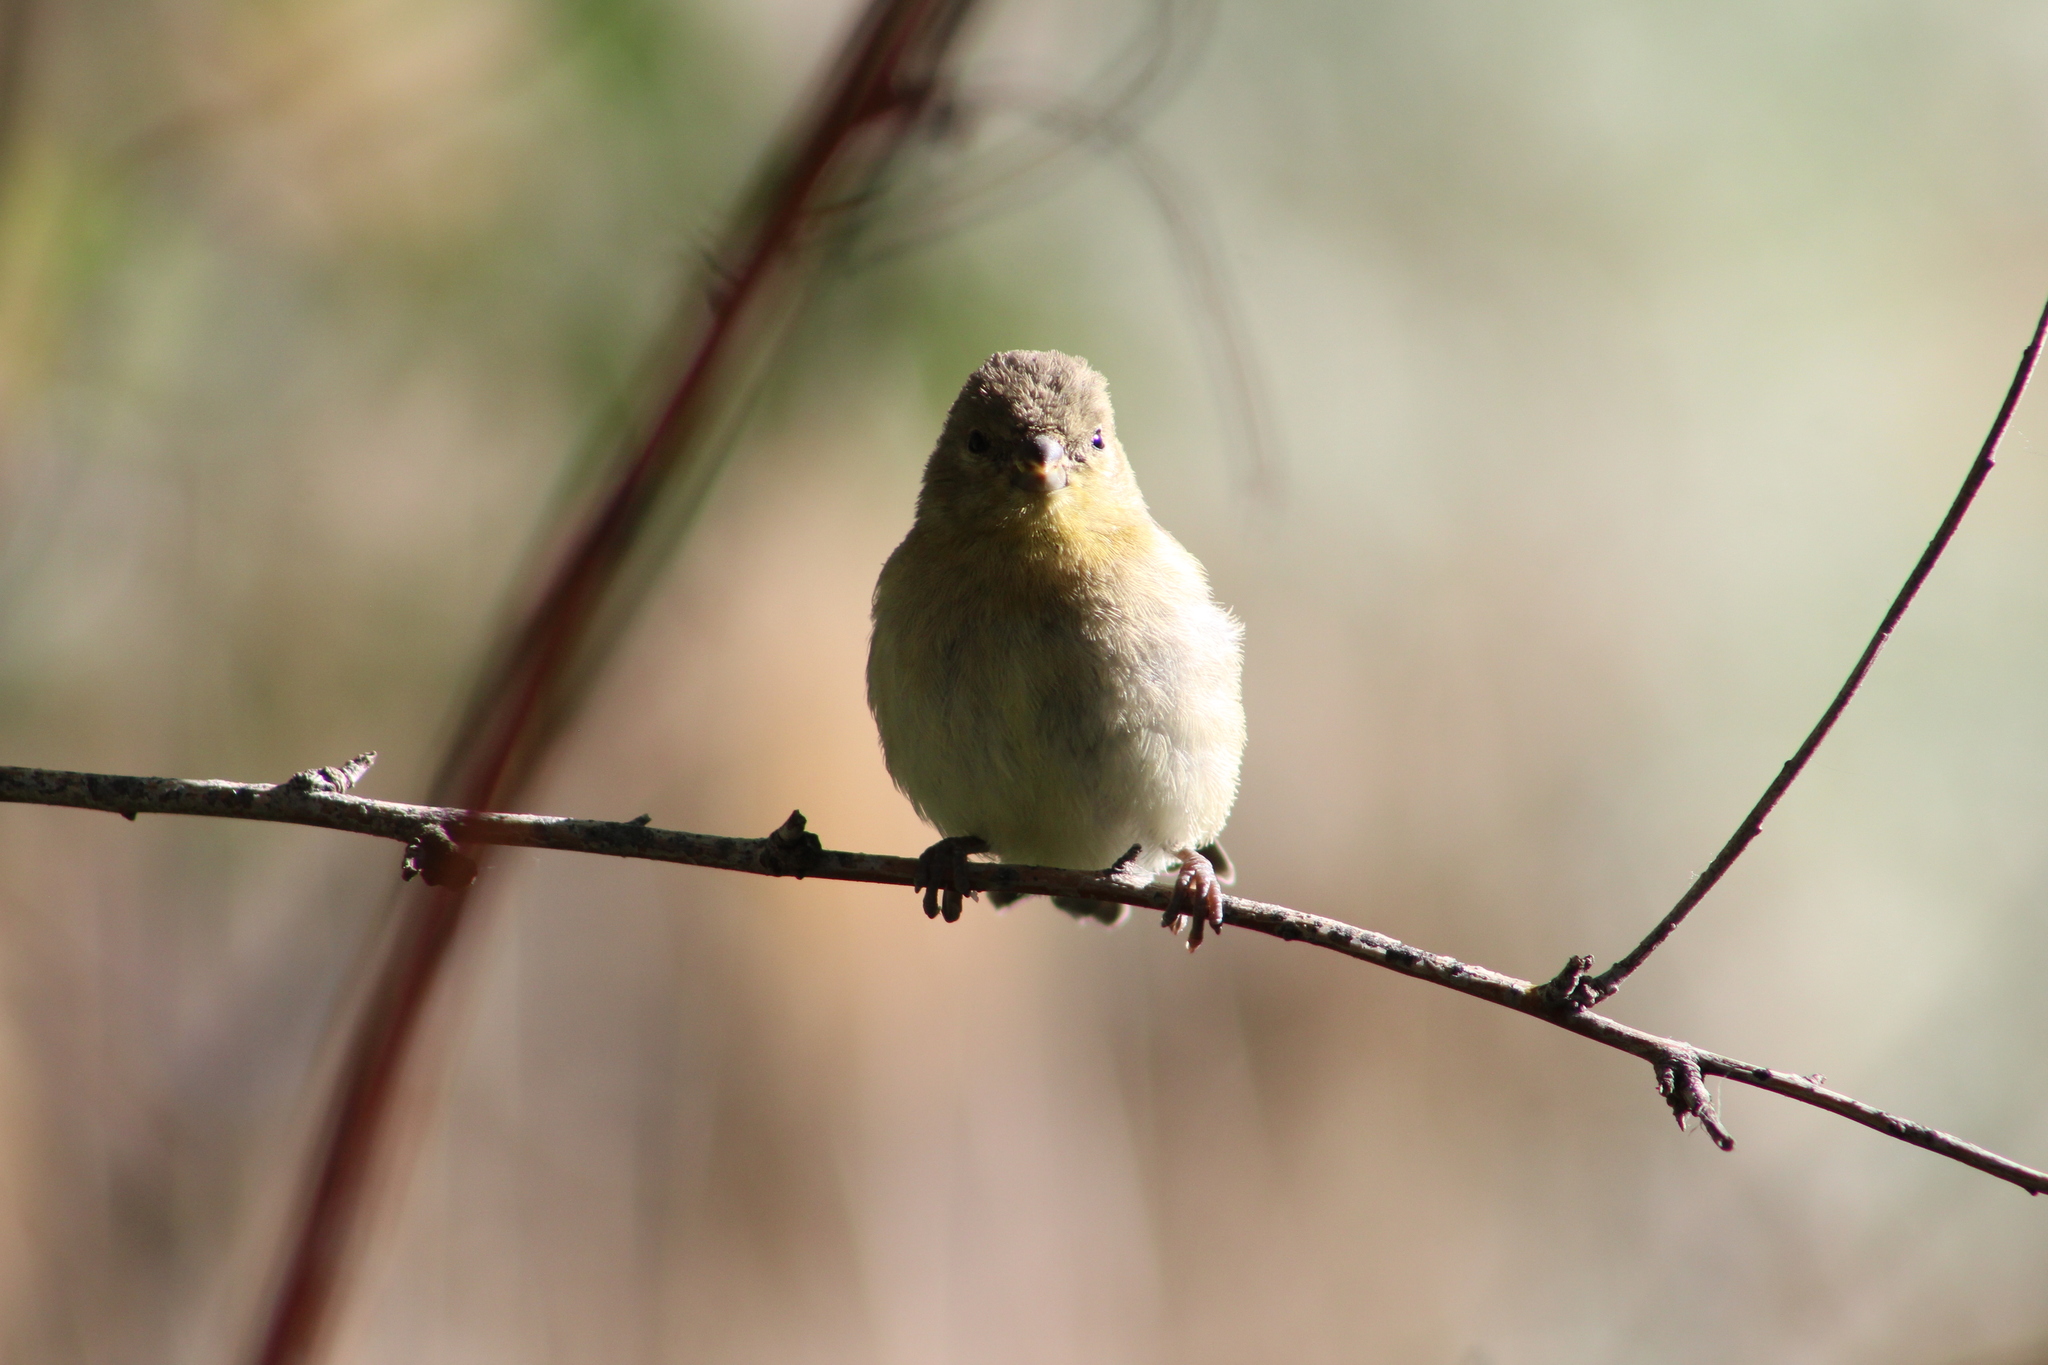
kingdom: Animalia
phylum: Chordata
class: Aves
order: Passeriformes
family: Fringillidae
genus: Spinus
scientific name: Spinus psaltria
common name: Lesser goldfinch
